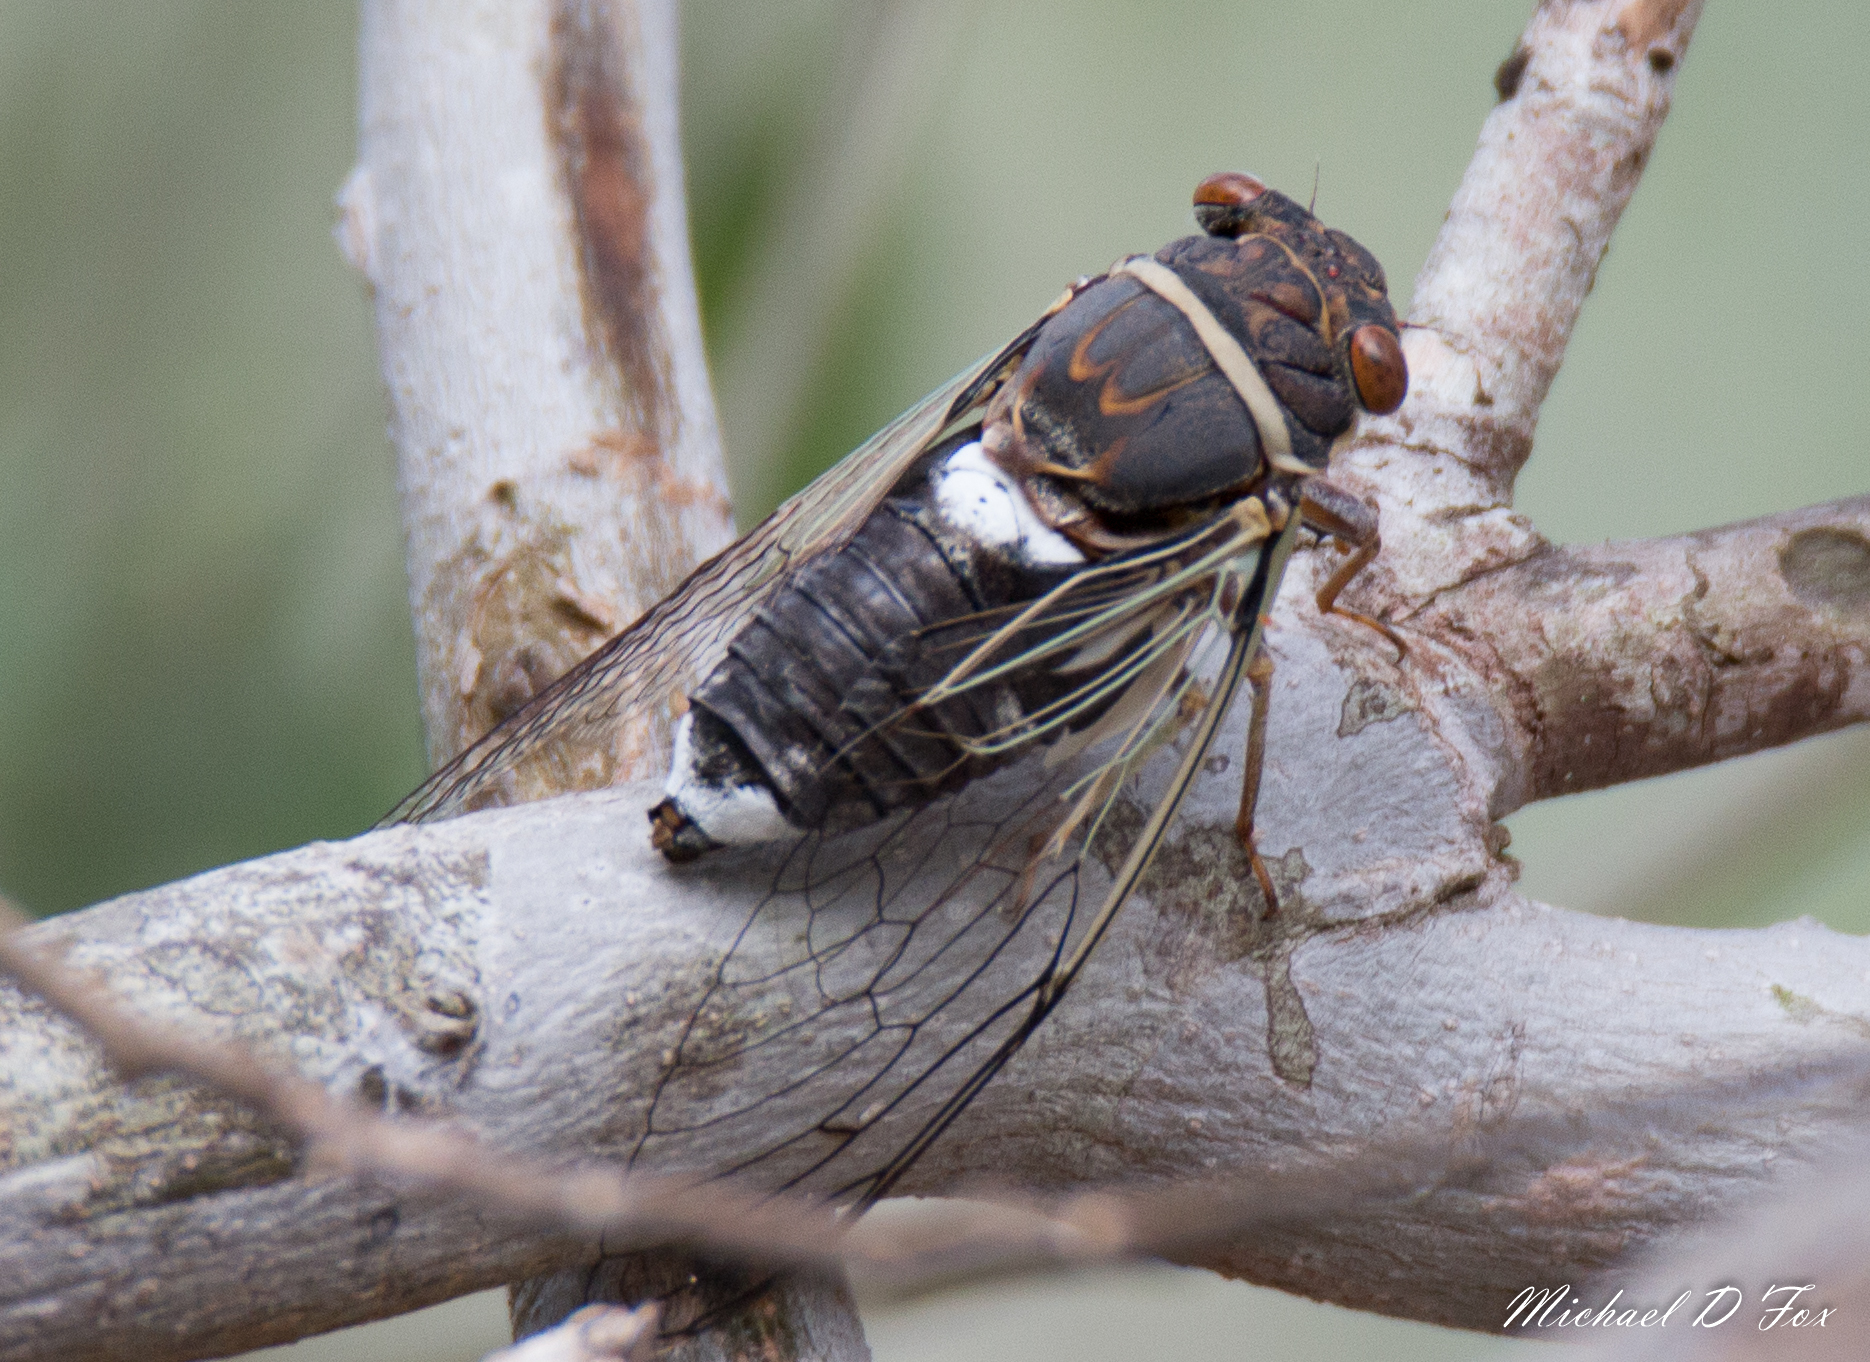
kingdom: Animalia
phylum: Arthropoda
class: Insecta
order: Hemiptera
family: Cicadidae
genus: Diceroprocta
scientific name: Diceroprocta cinctifera
